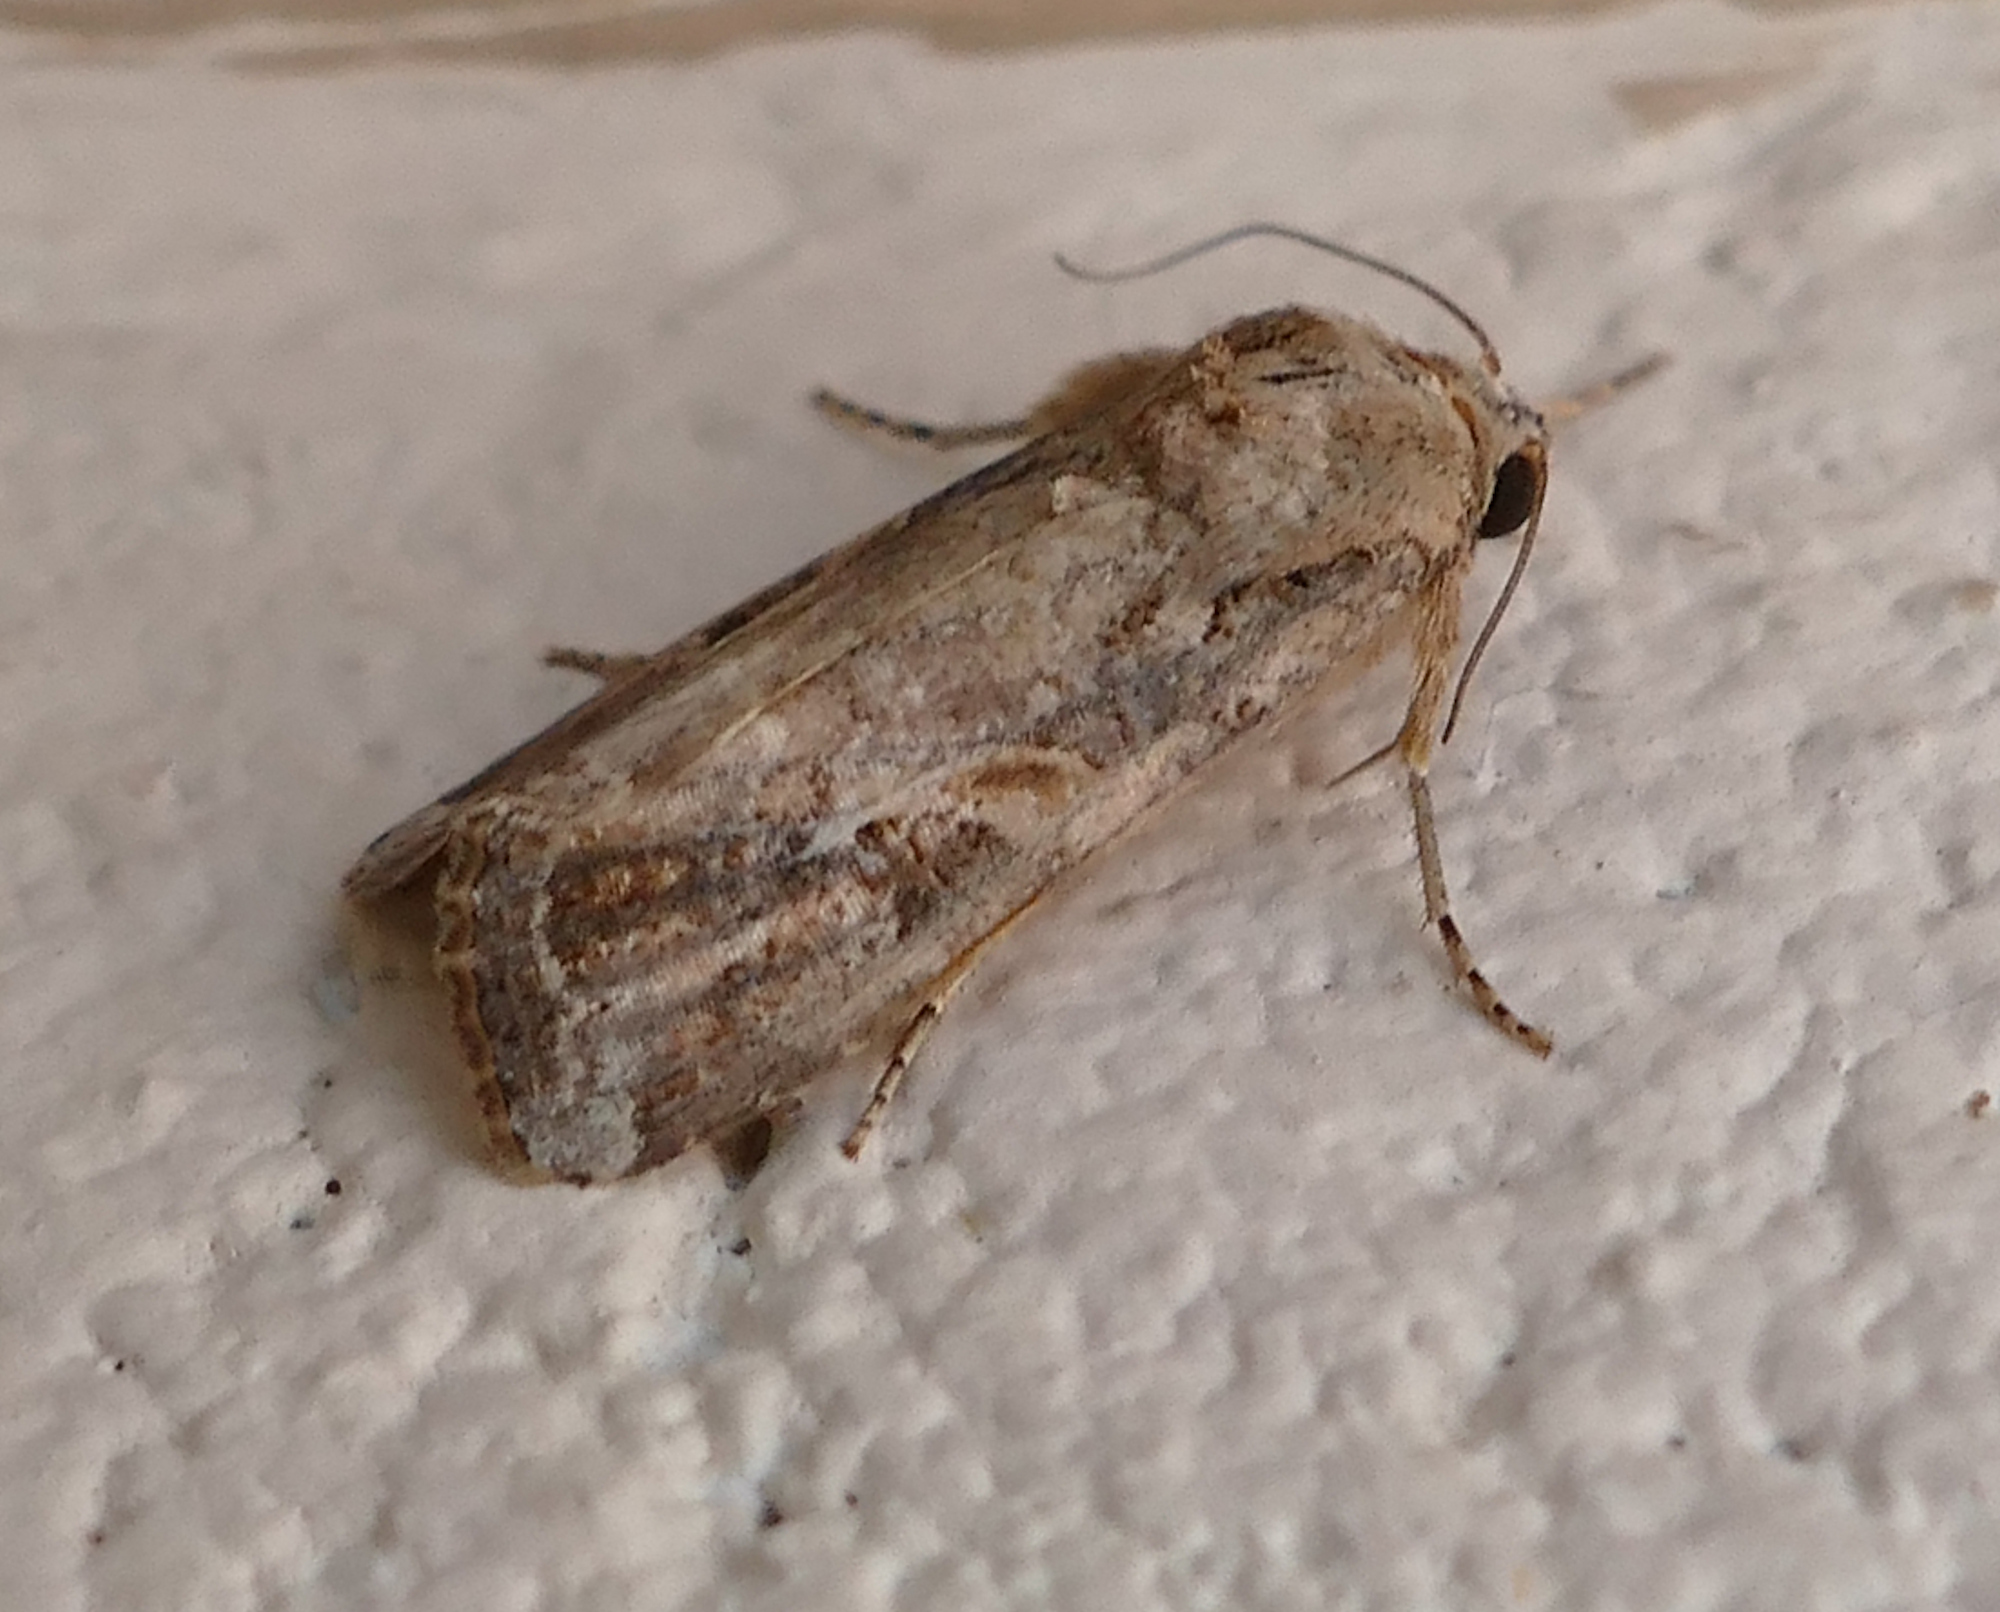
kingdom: Animalia
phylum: Arthropoda
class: Insecta
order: Lepidoptera
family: Noctuidae
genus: Spodoptera
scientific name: Spodoptera frugiperda
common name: Fall armyworm
